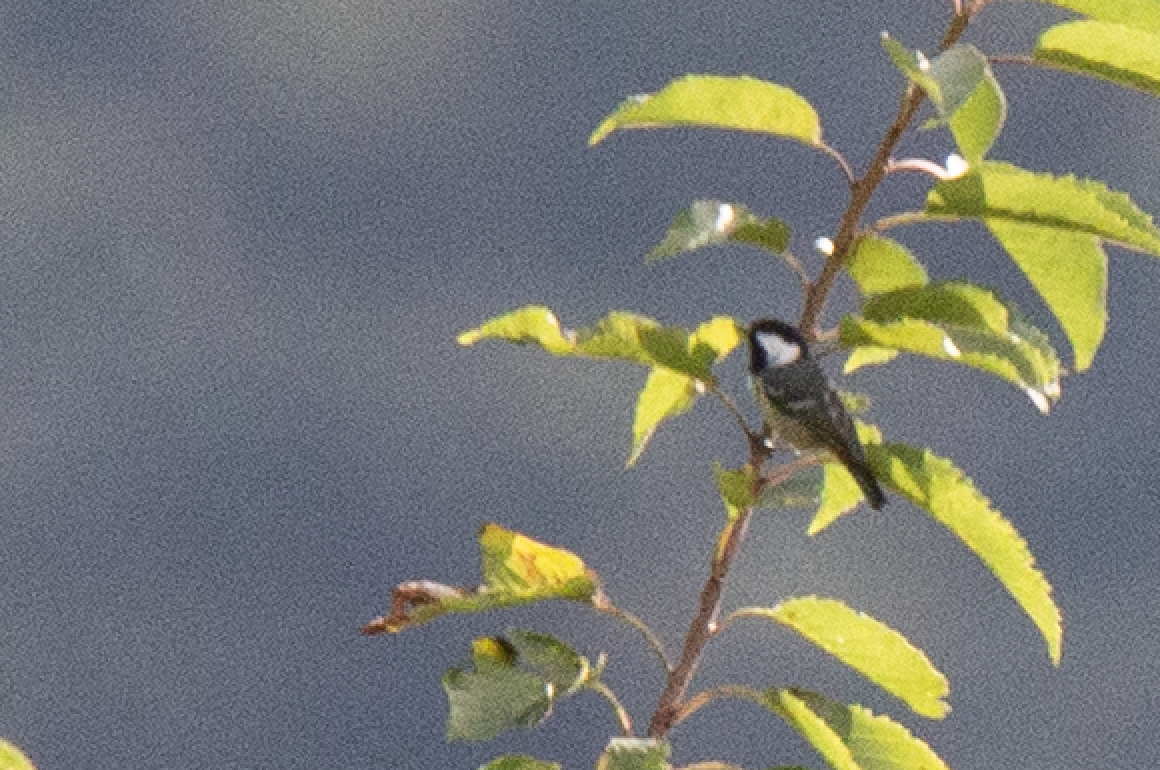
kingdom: Animalia
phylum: Chordata
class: Aves
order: Passeriformes
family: Paridae
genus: Periparus
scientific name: Periparus ater
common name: Coal tit
